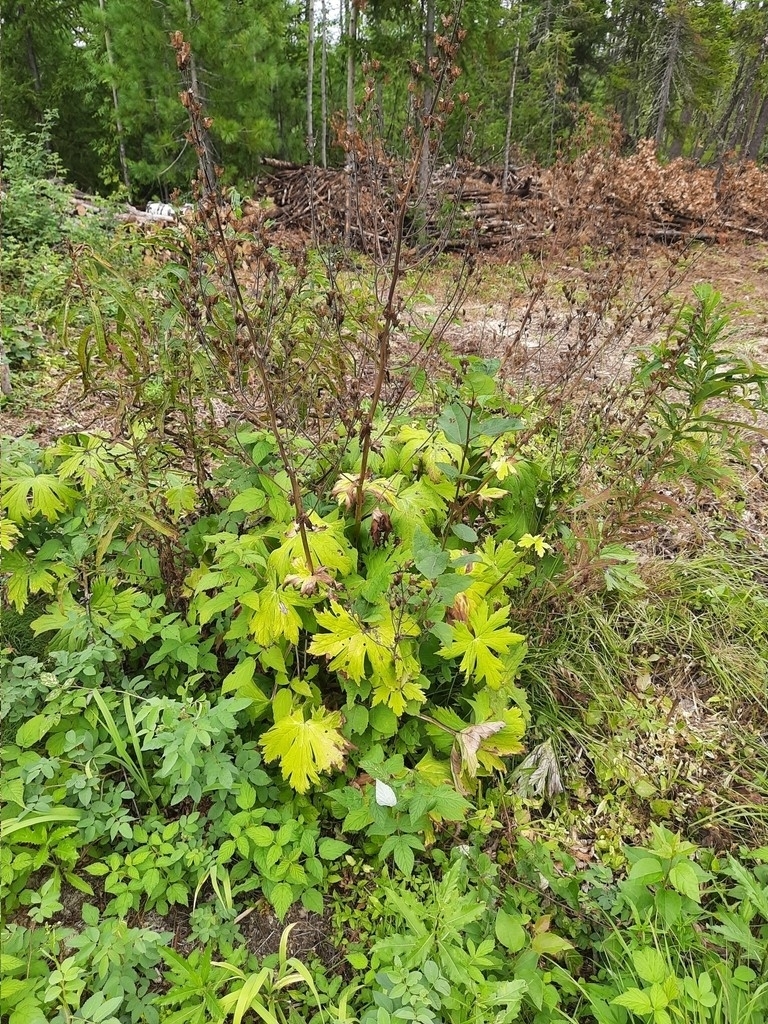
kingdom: Plantae
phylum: Tracheophyta
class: Magnoliopsida
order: Ranunculales
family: Ranunculaceae
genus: Aconitum
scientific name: Aconitum septentrionale
